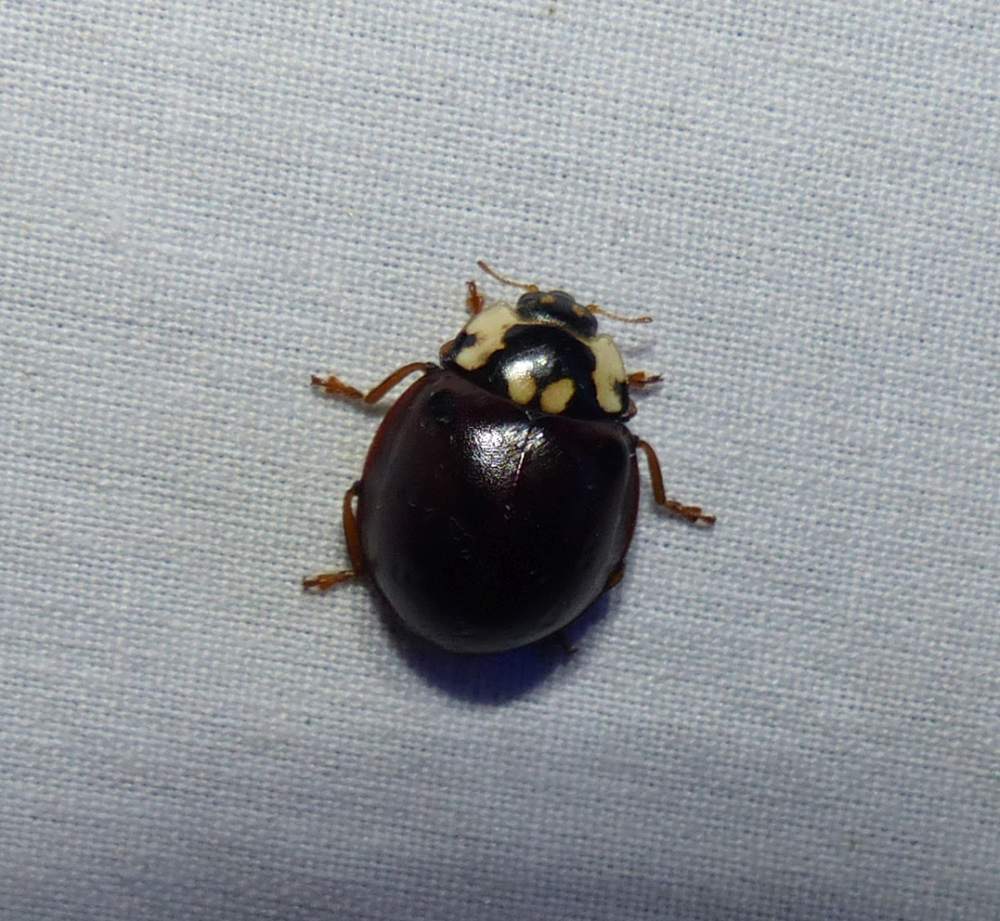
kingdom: Animalia
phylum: Arthropoda
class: Insecta
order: Coleoptera
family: Coccinellidae
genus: Anatis
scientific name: Anatis labiculata
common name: Fifteen-spotted lady beetle
